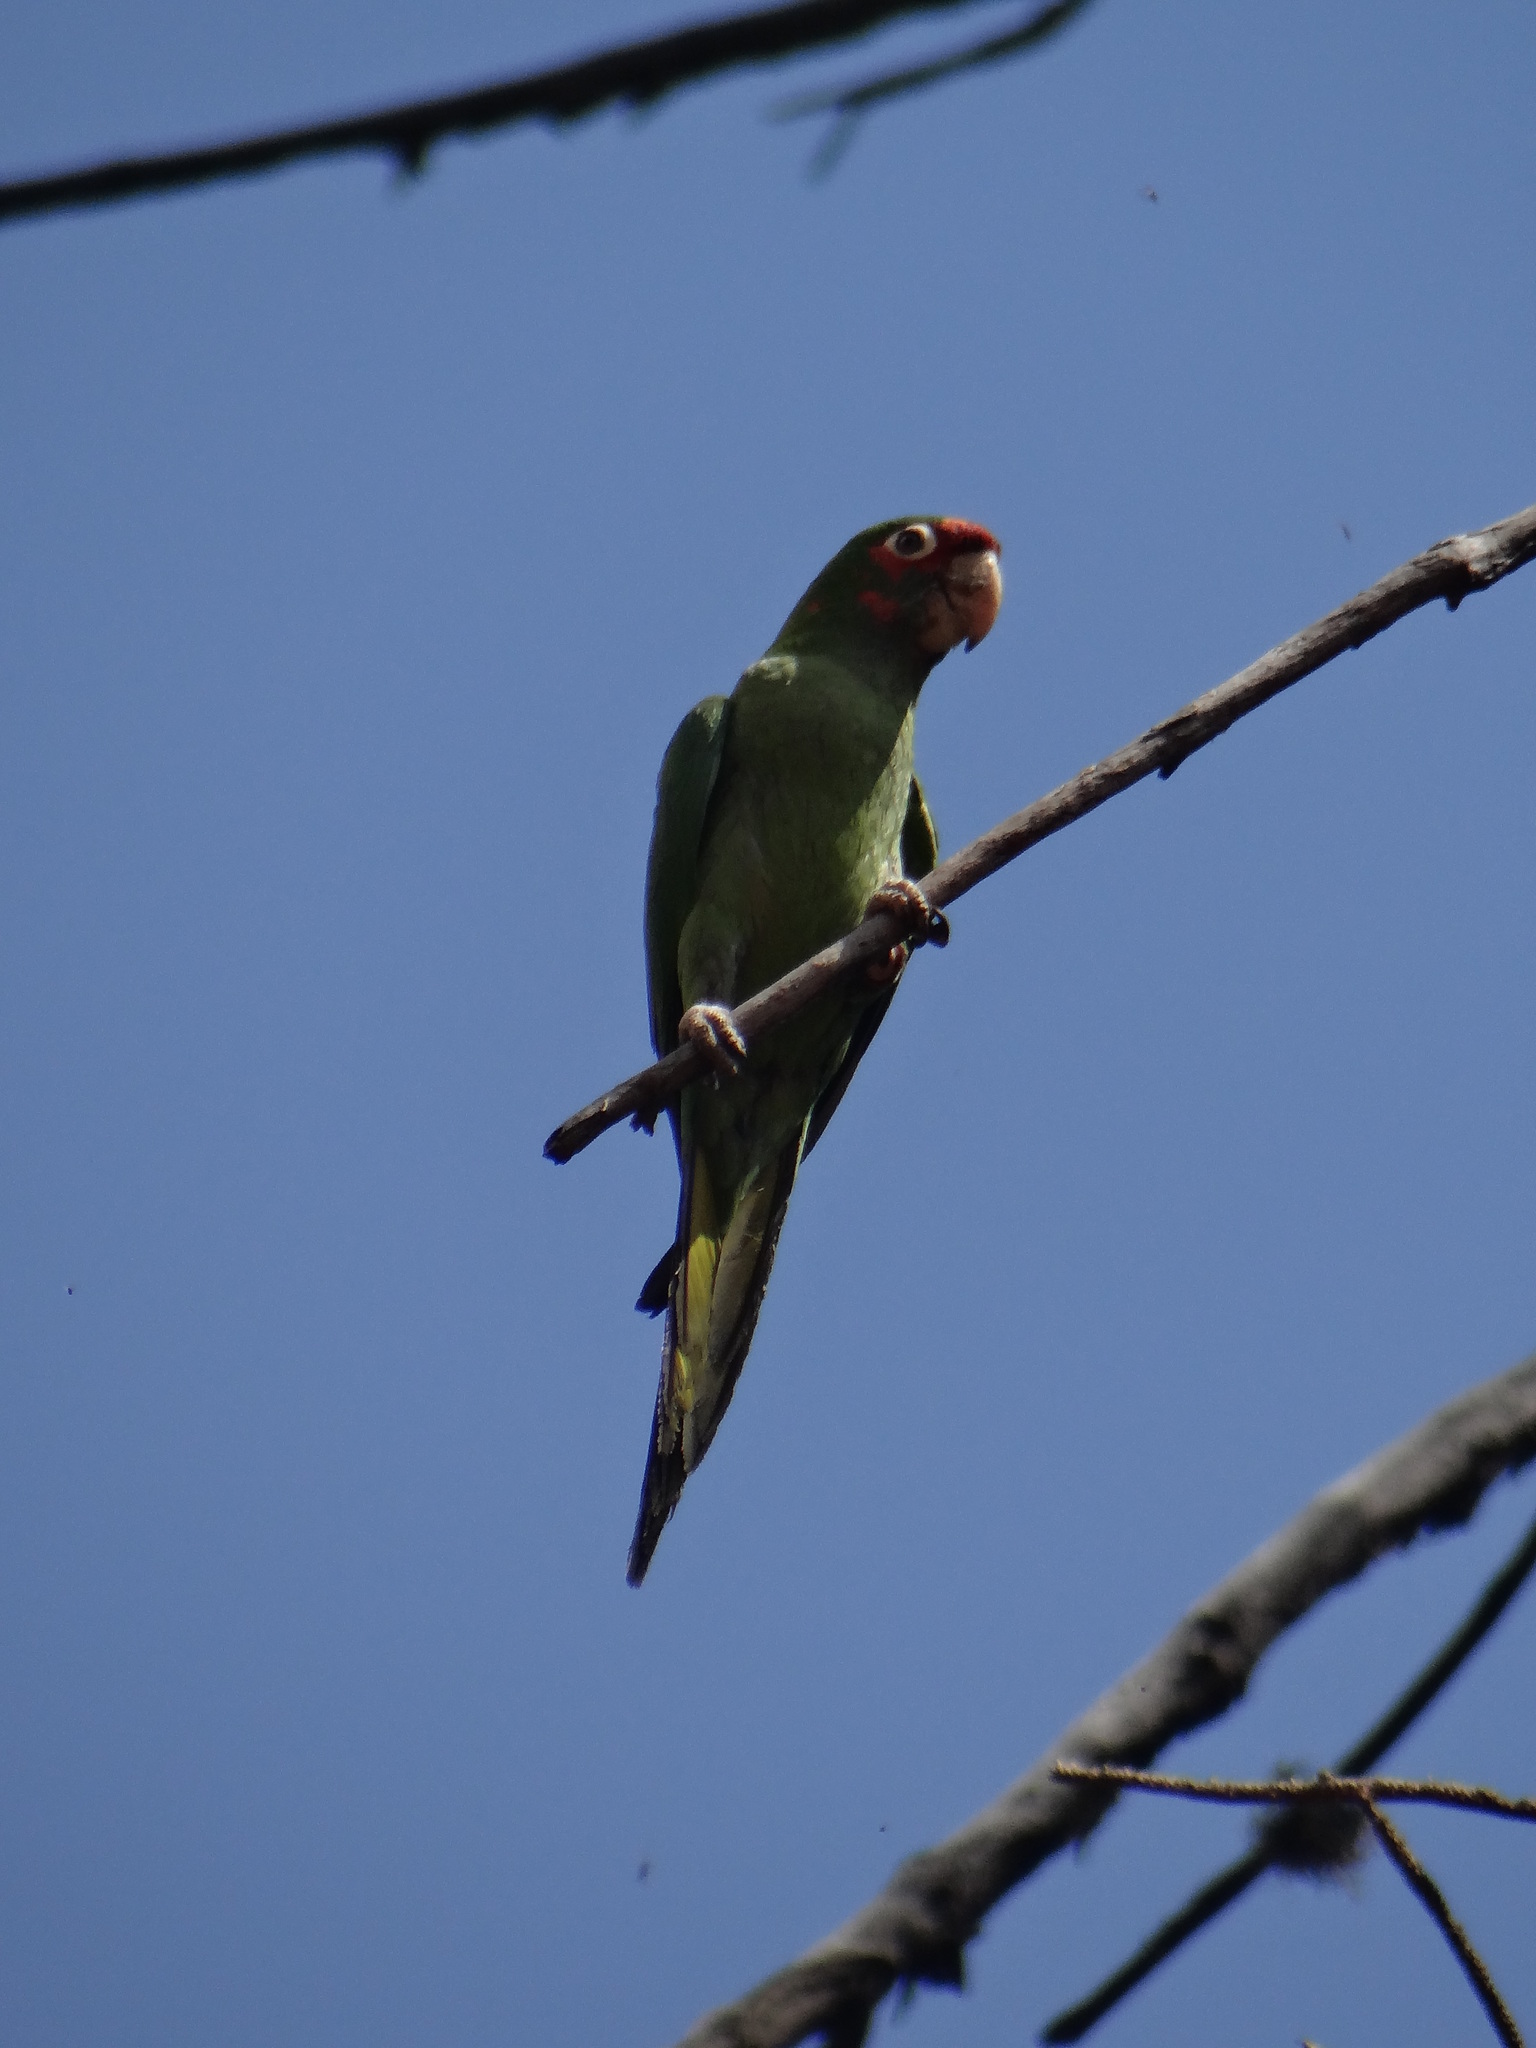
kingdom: Animalia
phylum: Chordata
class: Aves
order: Psittaciformes
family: Psittacidae
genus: Aratinga
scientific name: Aratinga mitrata
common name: Mitred parakeet
